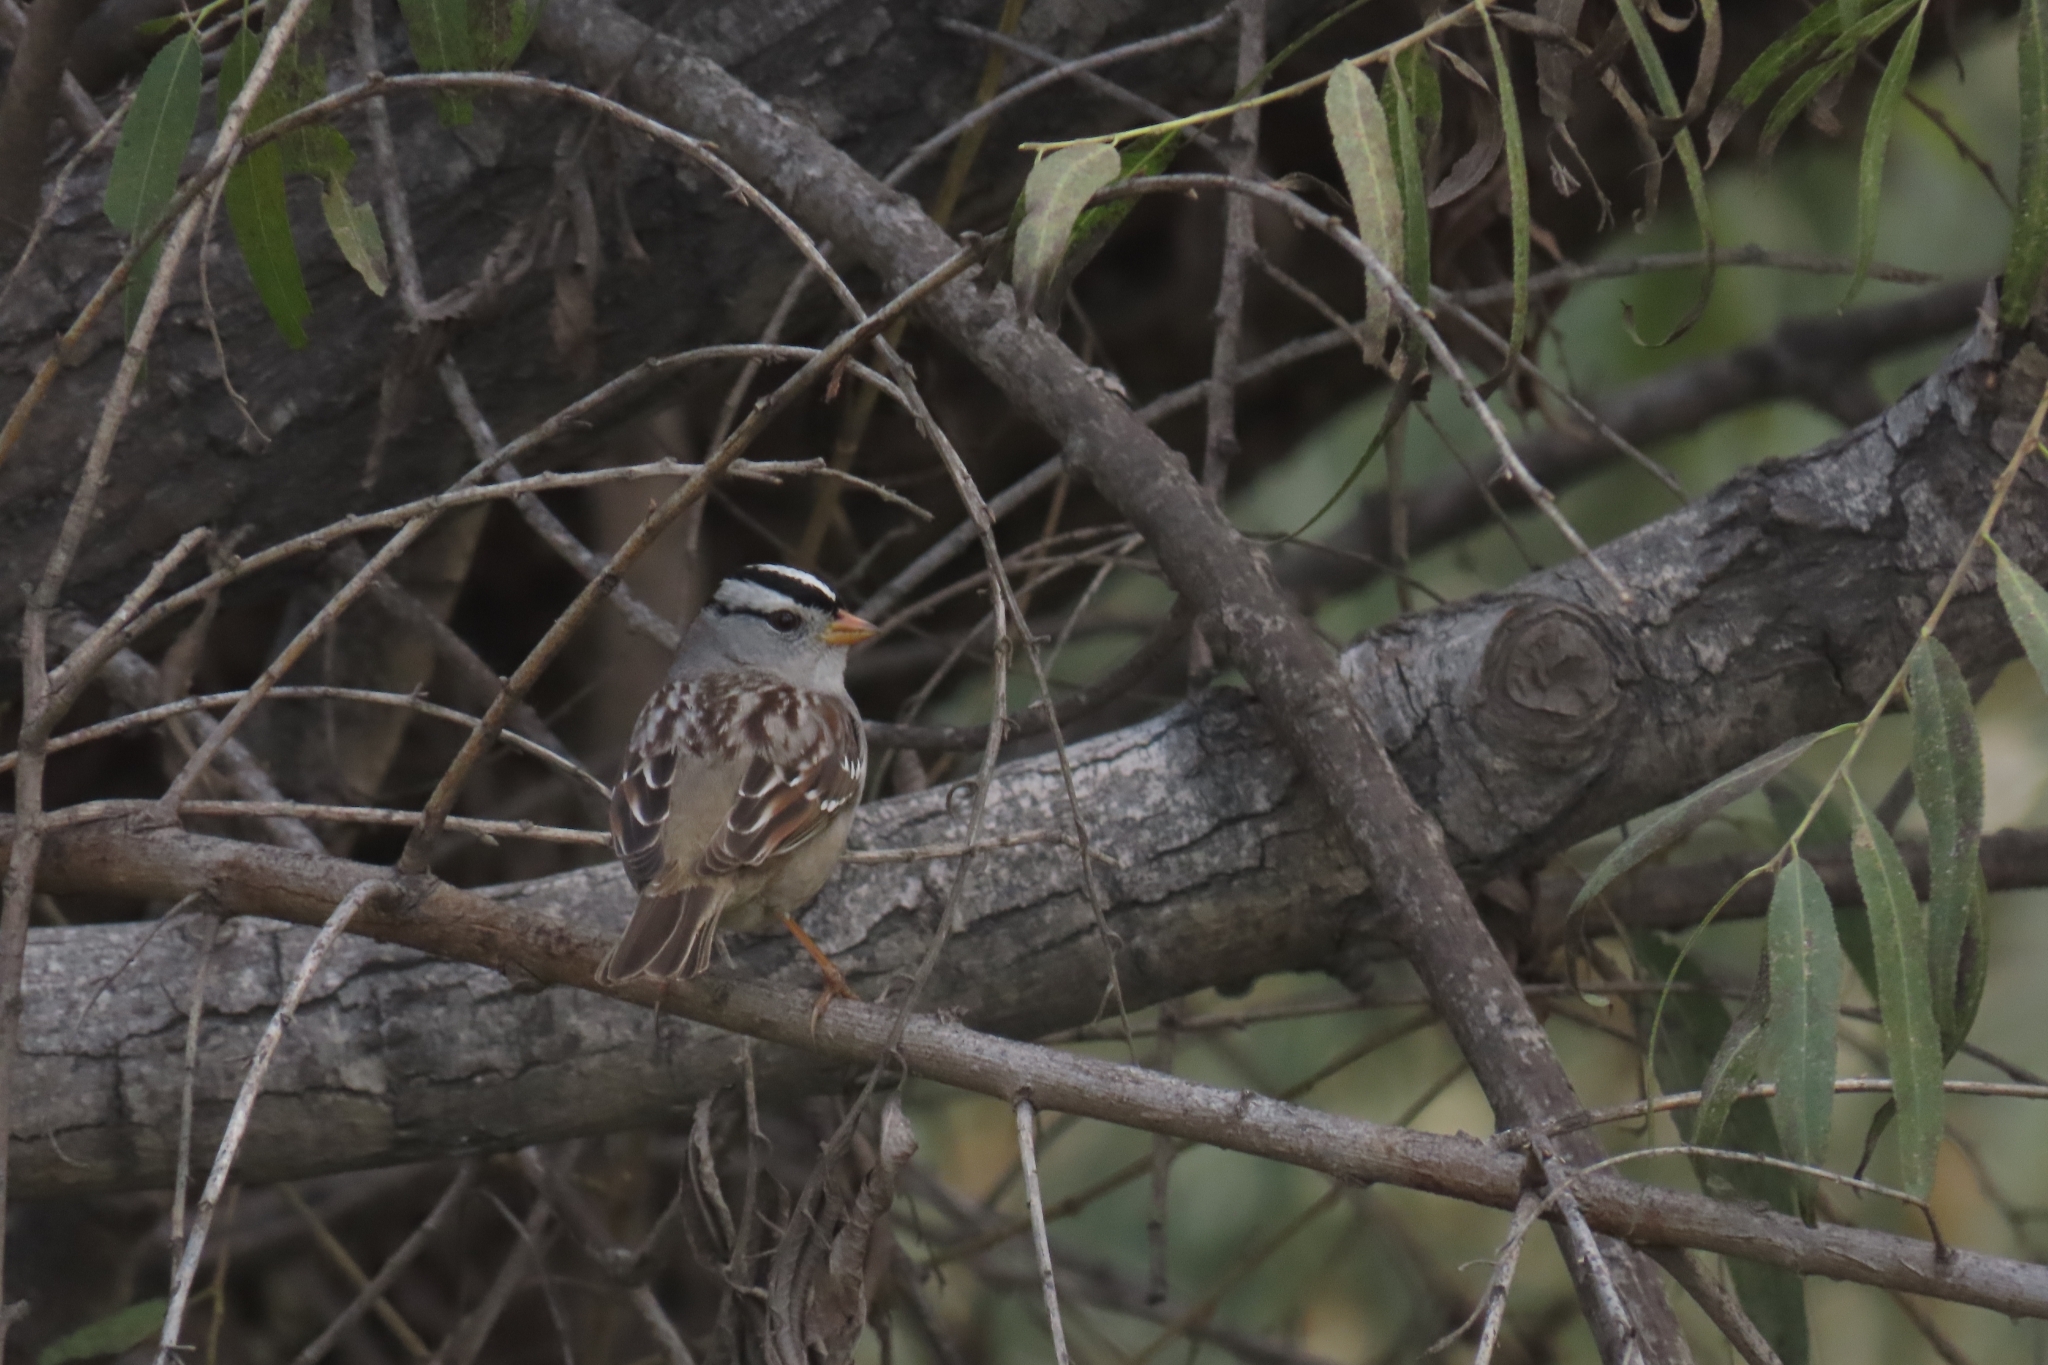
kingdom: Animalia
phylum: Chordata
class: Aves
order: Passeriformes
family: Passerellidae
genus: Zonotrichia
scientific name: Zonotrichia leucophrys
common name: White-crowned sparrow
